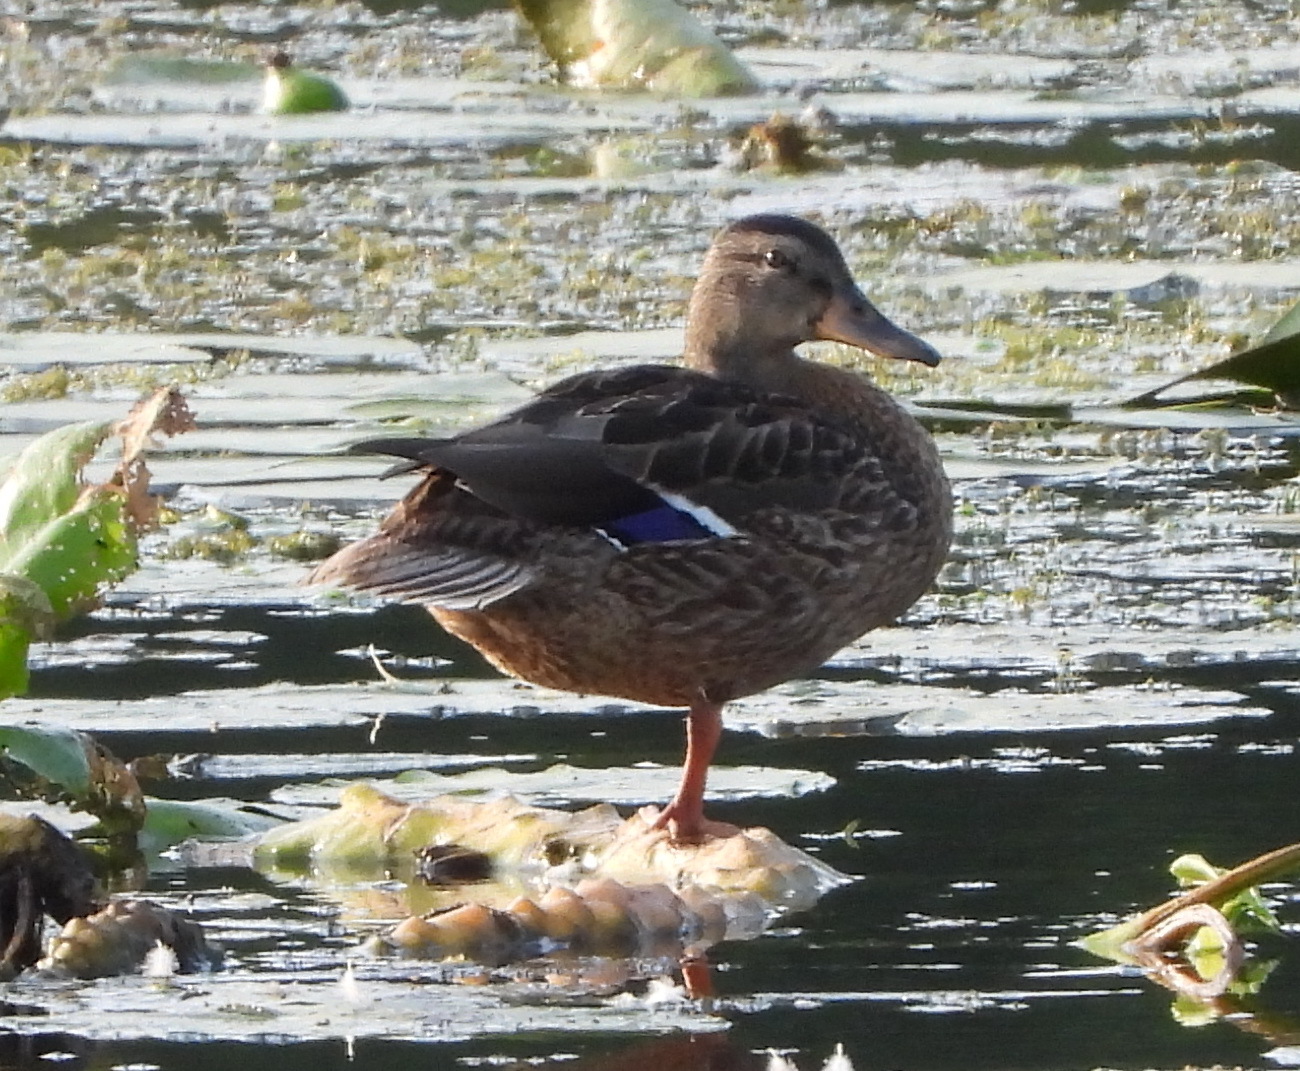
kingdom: Animalia
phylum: Chordata
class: Aves
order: Anseriformes
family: Anatidae
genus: Anas
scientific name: Anas platyrhynchos
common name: Mallard
